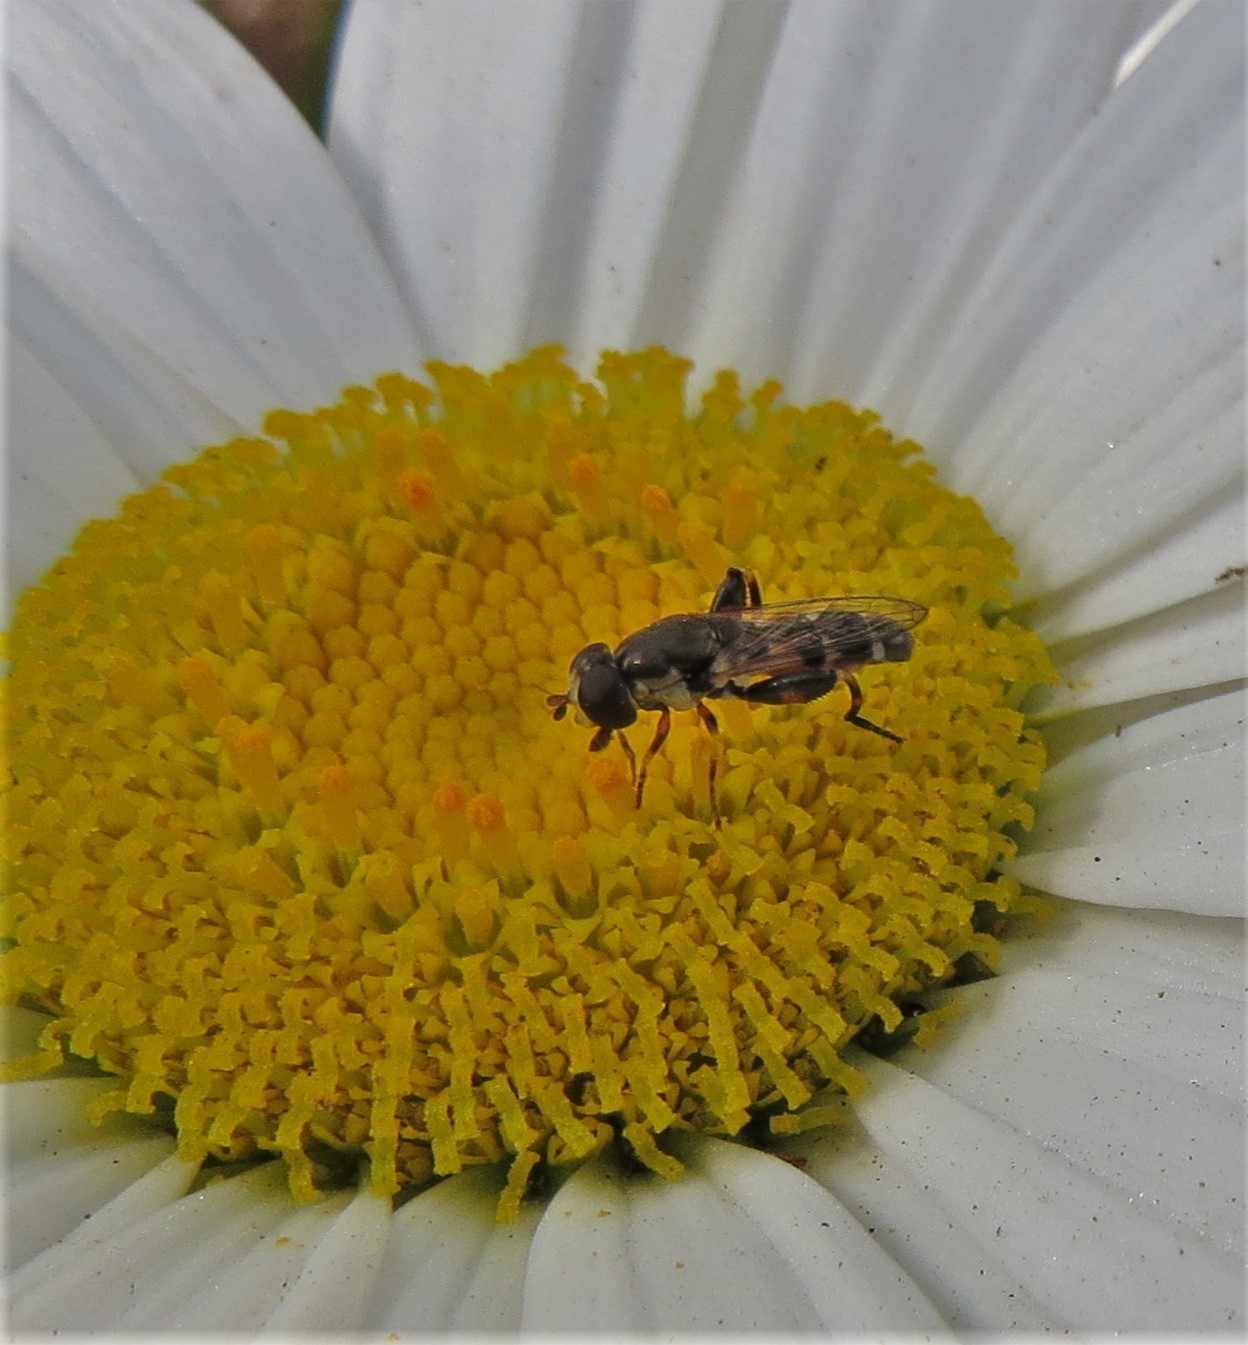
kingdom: Animalia
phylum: Arthropoda
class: Insecta
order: Diptera
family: Syrphidae
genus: Syritta
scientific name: Syritta pipiens
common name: Hover fly
